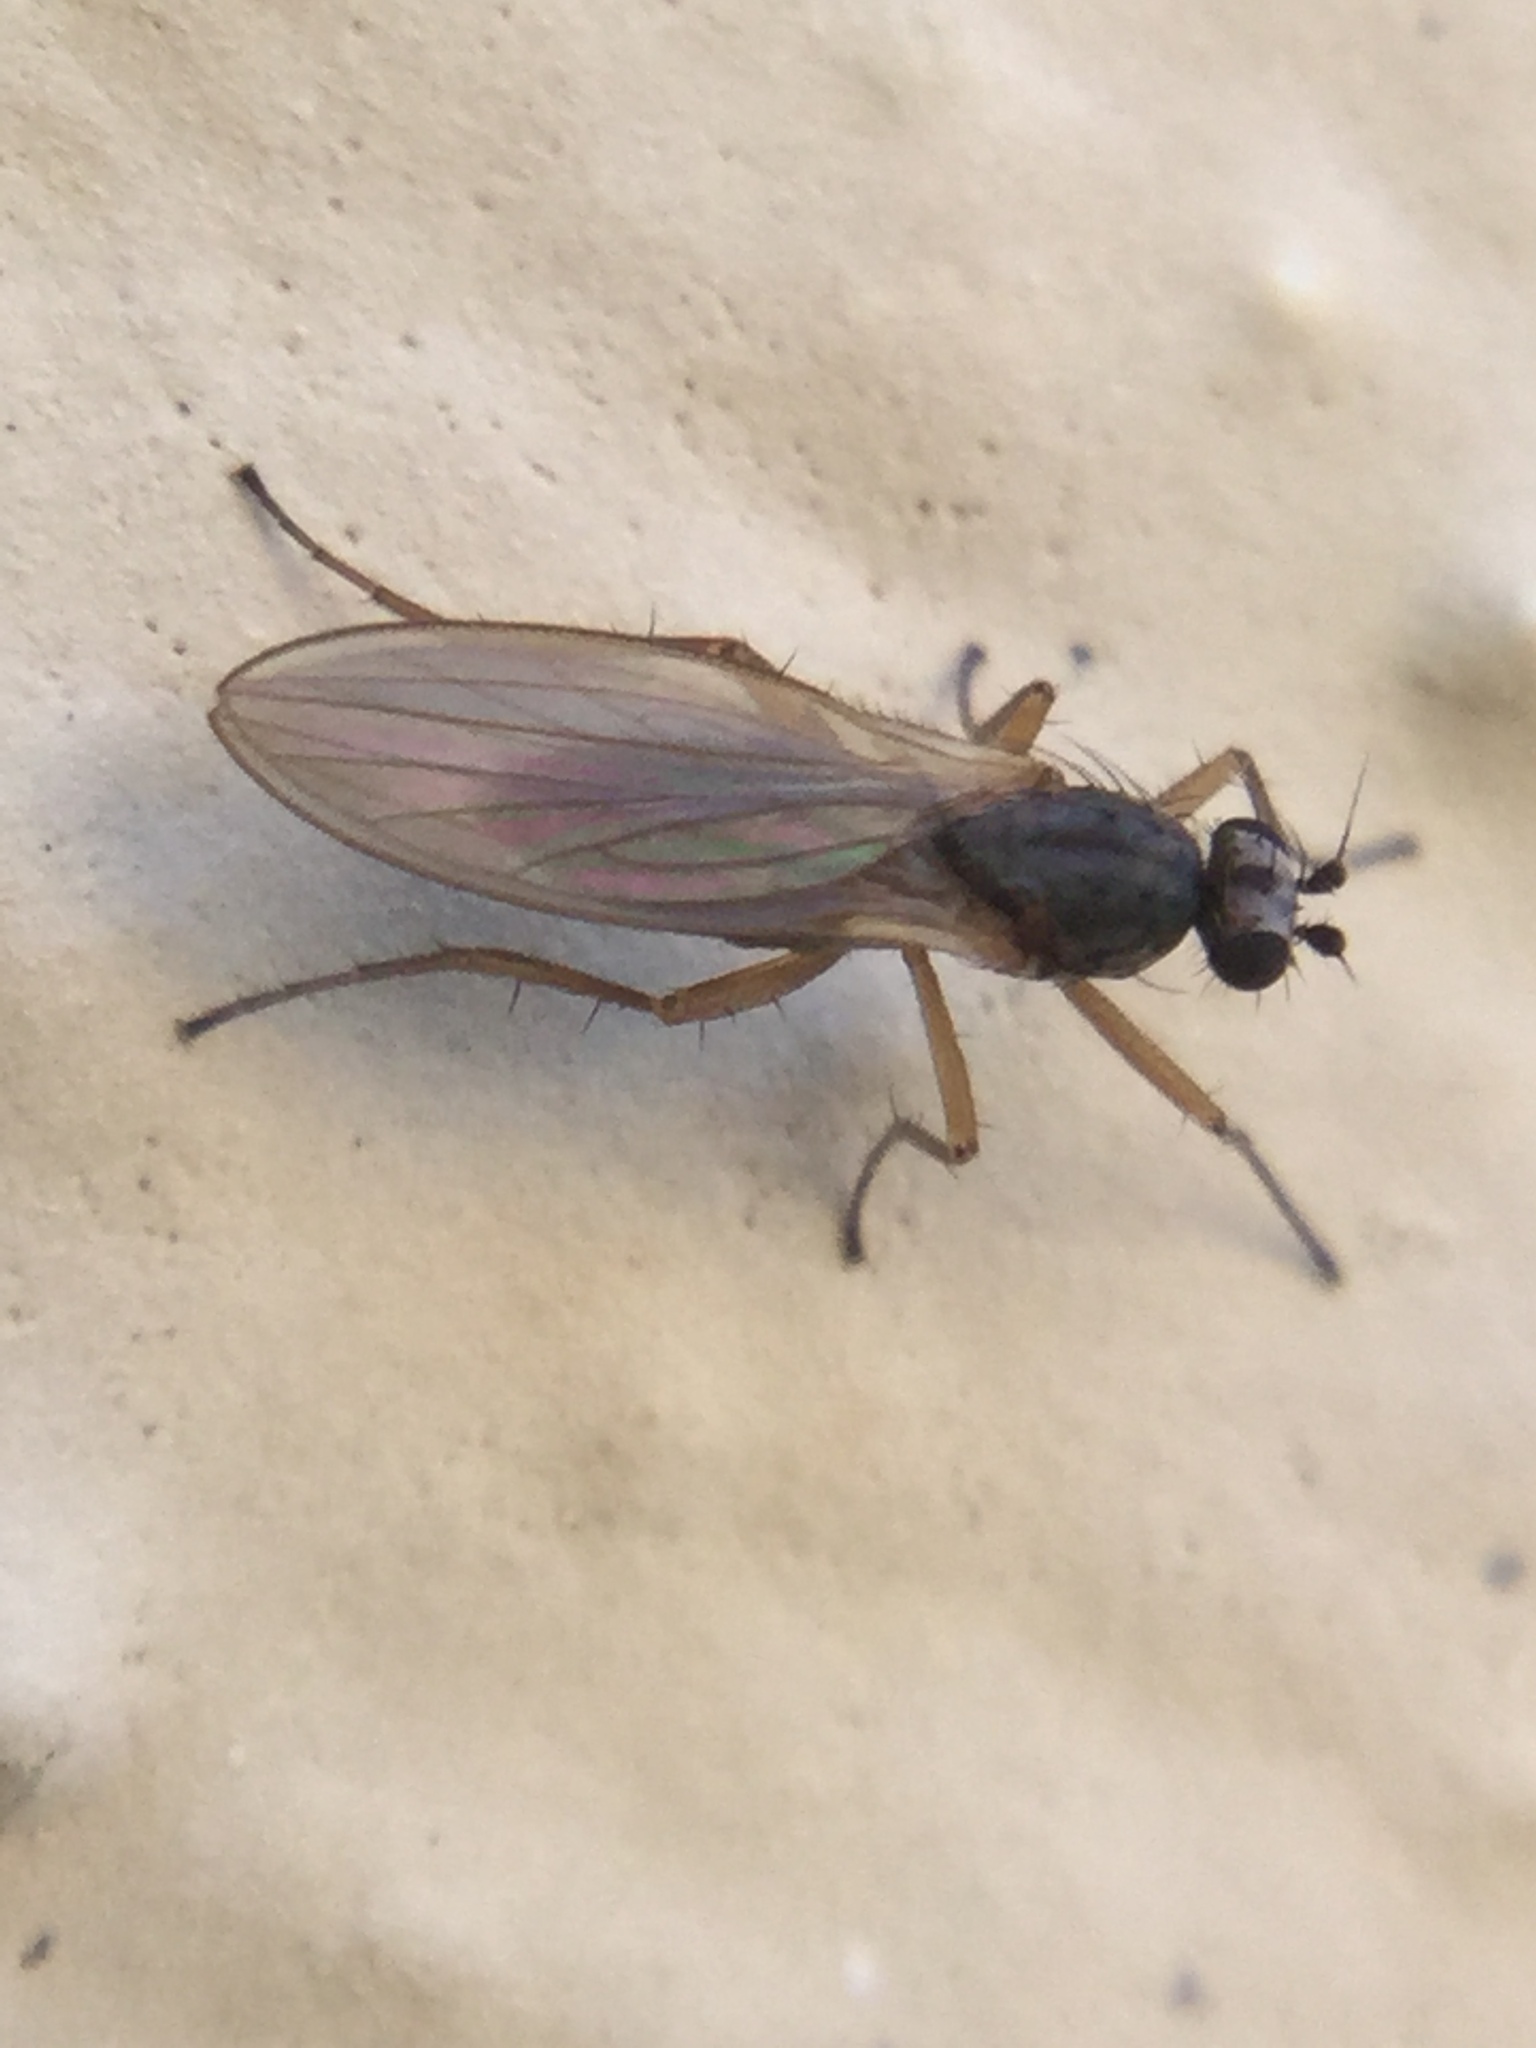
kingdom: Animalia
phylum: Arthropoda
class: Insecta
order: Diptera
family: Lonchopteridae
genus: Lonchoptera
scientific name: Lonchoptera bifurcata
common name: Spear-winged fly
